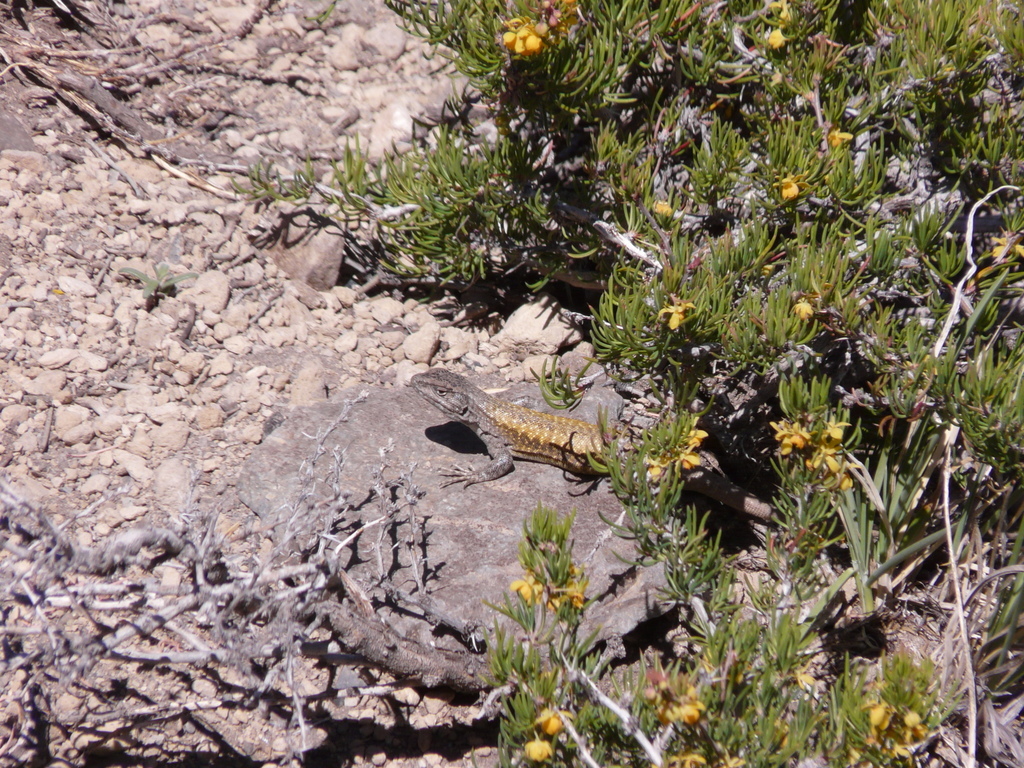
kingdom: Animalia
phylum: Chordata
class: Squamata
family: Liolaemidae
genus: Liolaemus
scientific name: Liolaemus smaug
